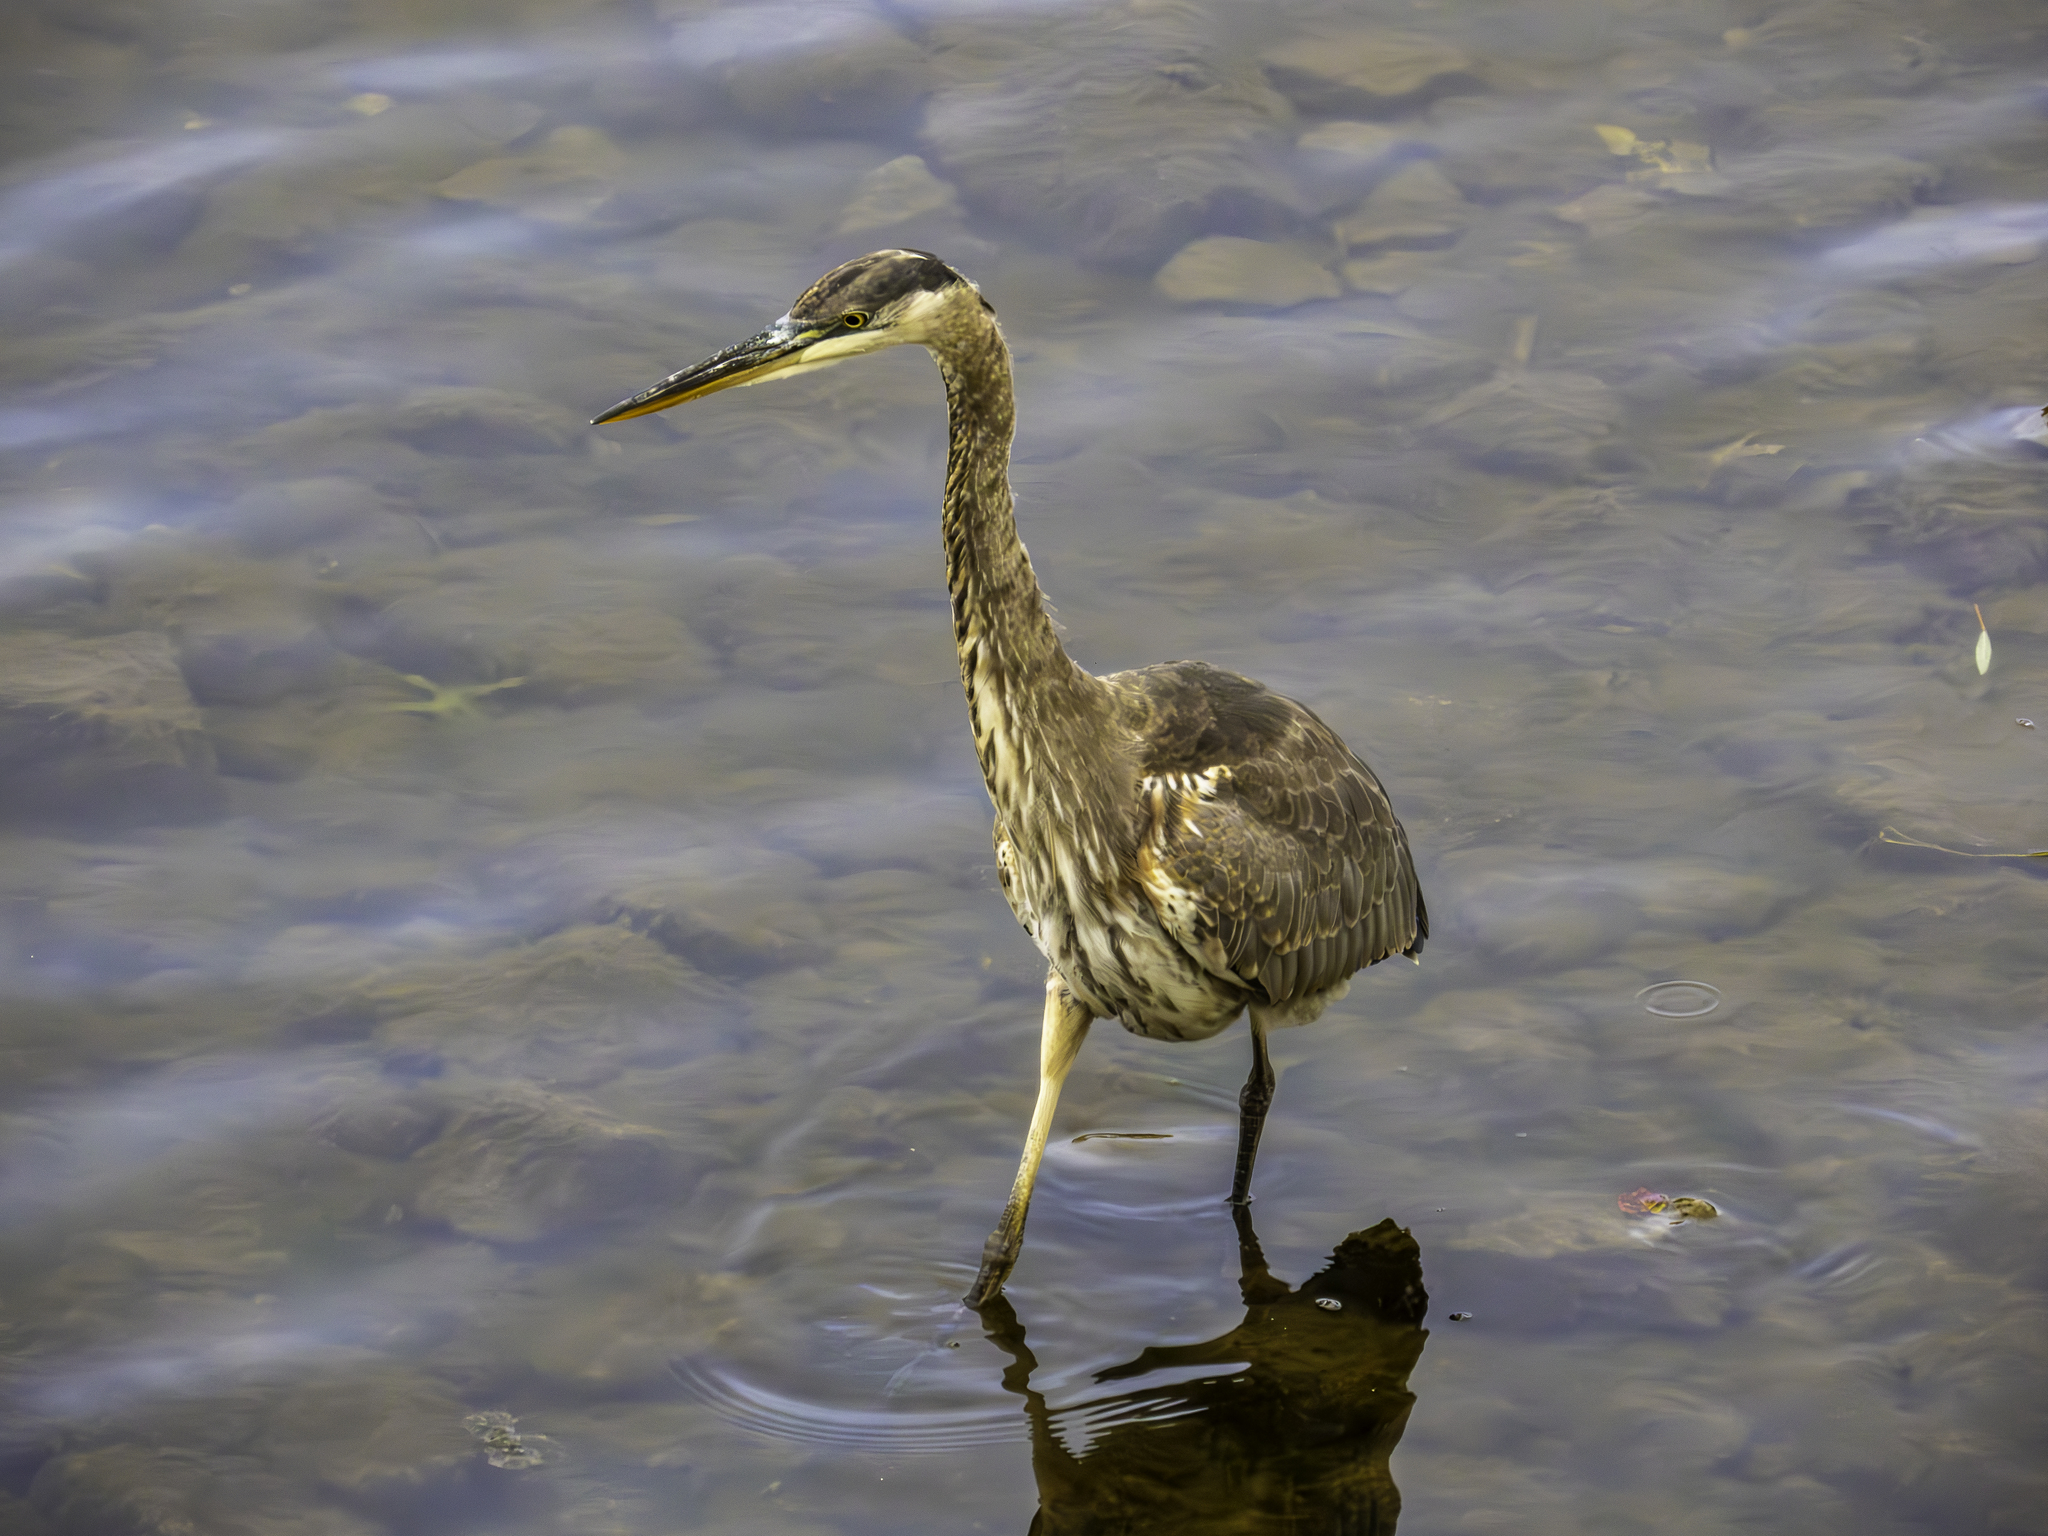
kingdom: Animalia
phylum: Chordata
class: Aves
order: Pelecaniformes
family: Ardeidae
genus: Ardea
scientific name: Ardea herodias
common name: Great blue heron
